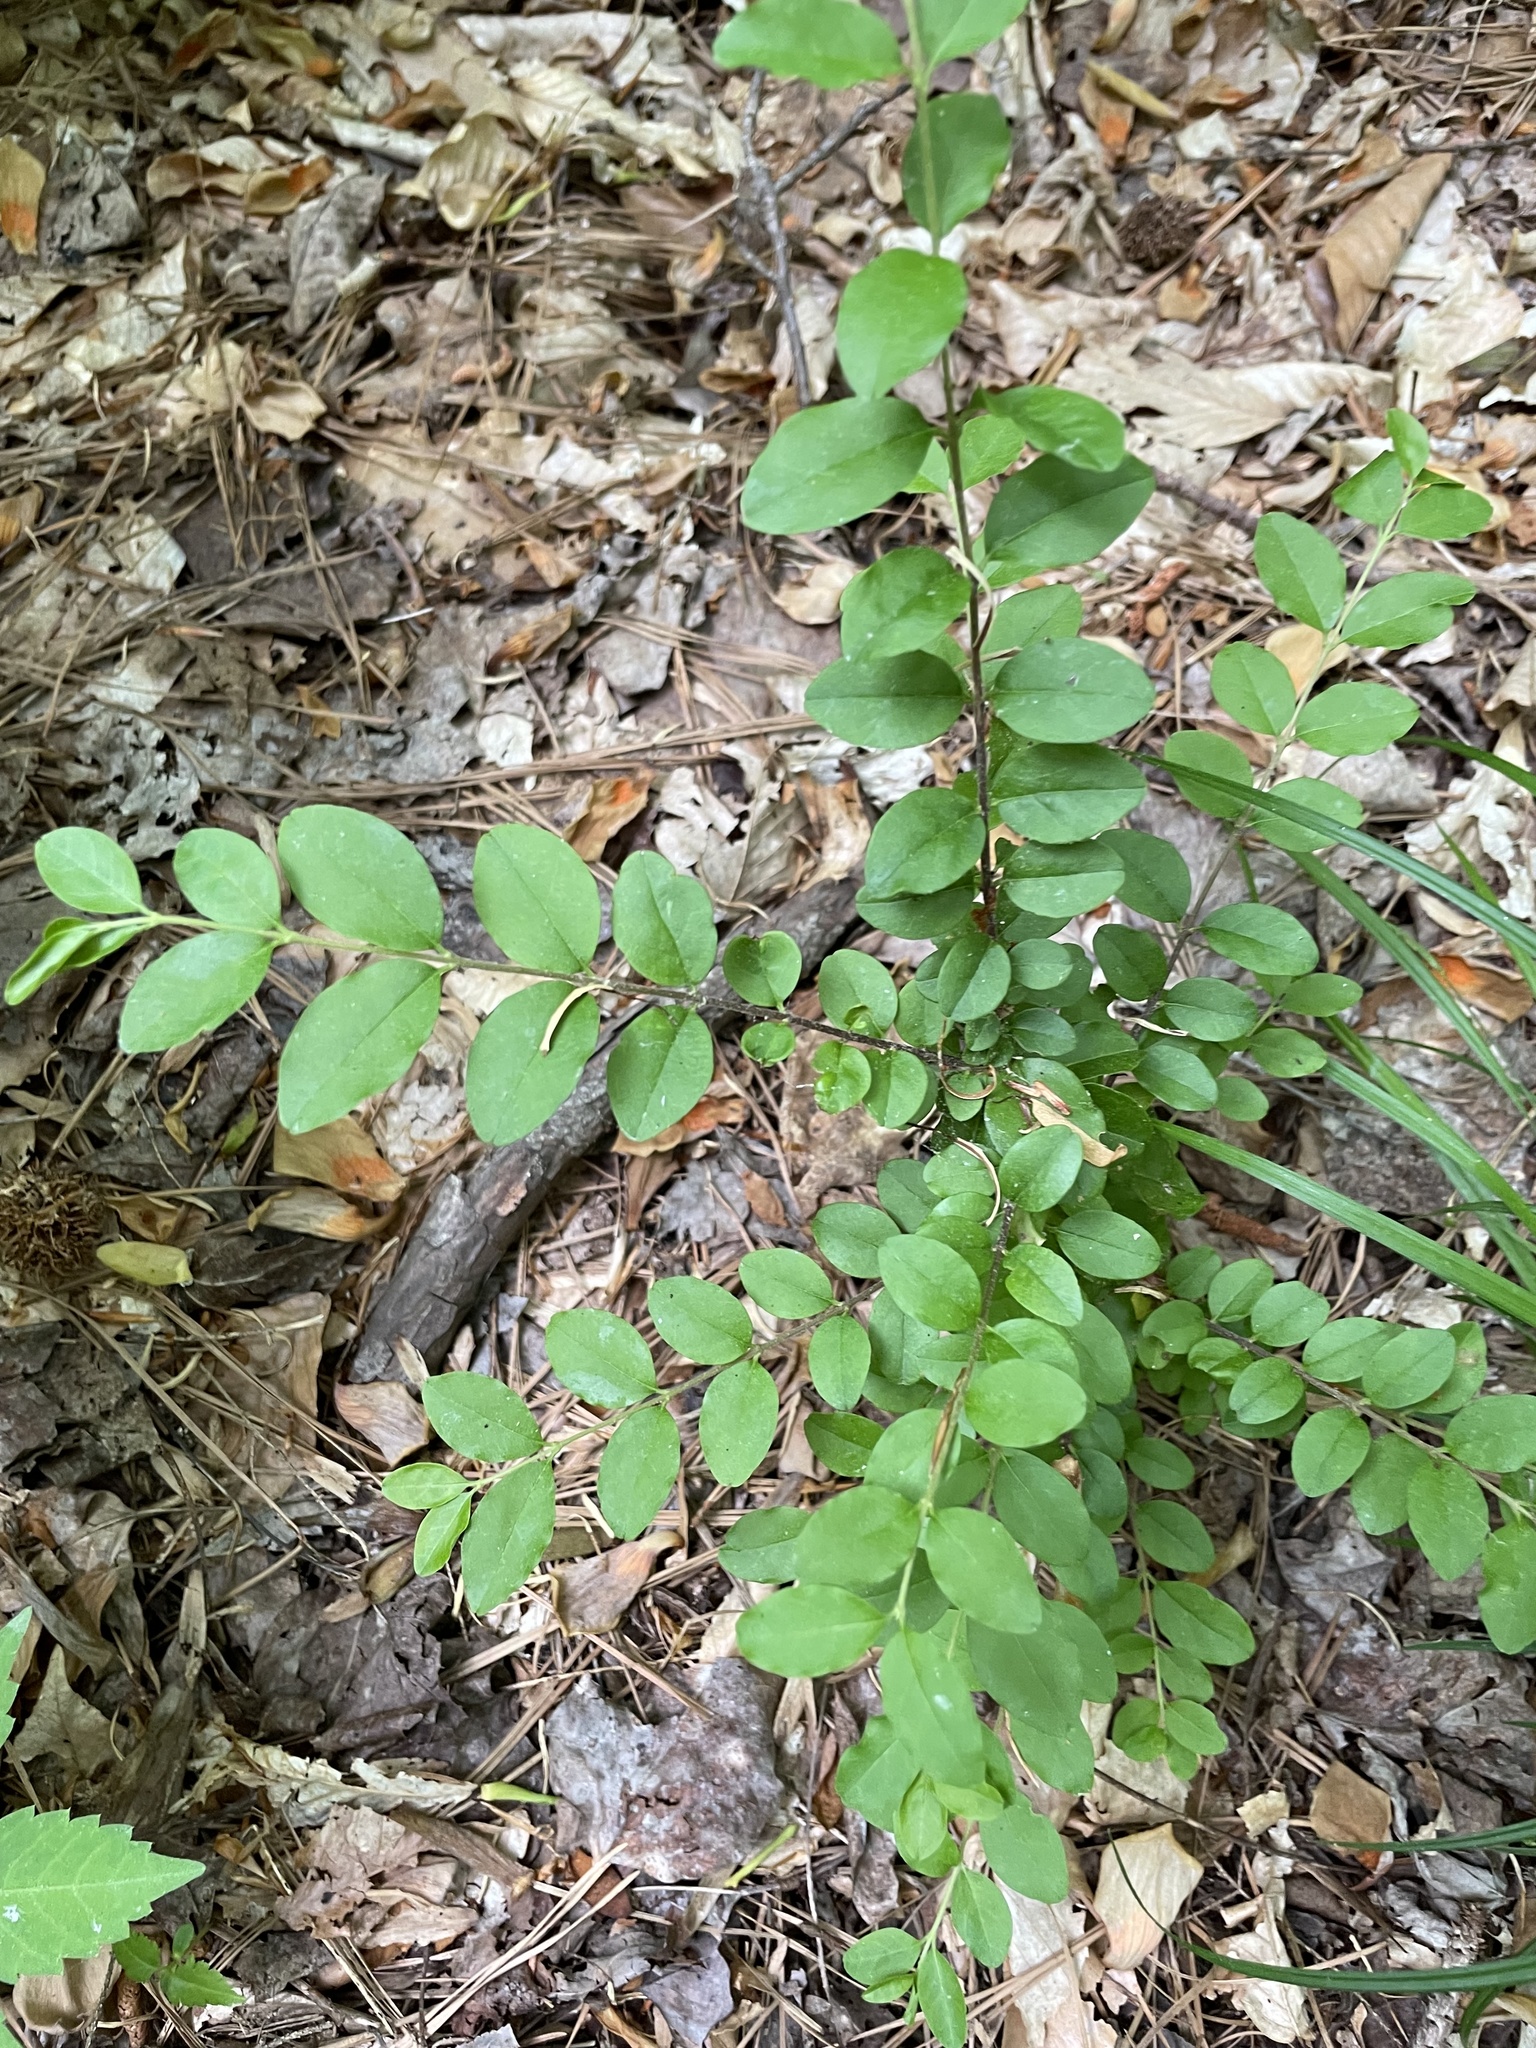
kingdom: Plantae
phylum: Tracheophyta
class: Magnoliopsida
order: Lamiales
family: Oleaceae
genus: Ligustrum
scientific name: Ligustrum sinense
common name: Chinese privet
